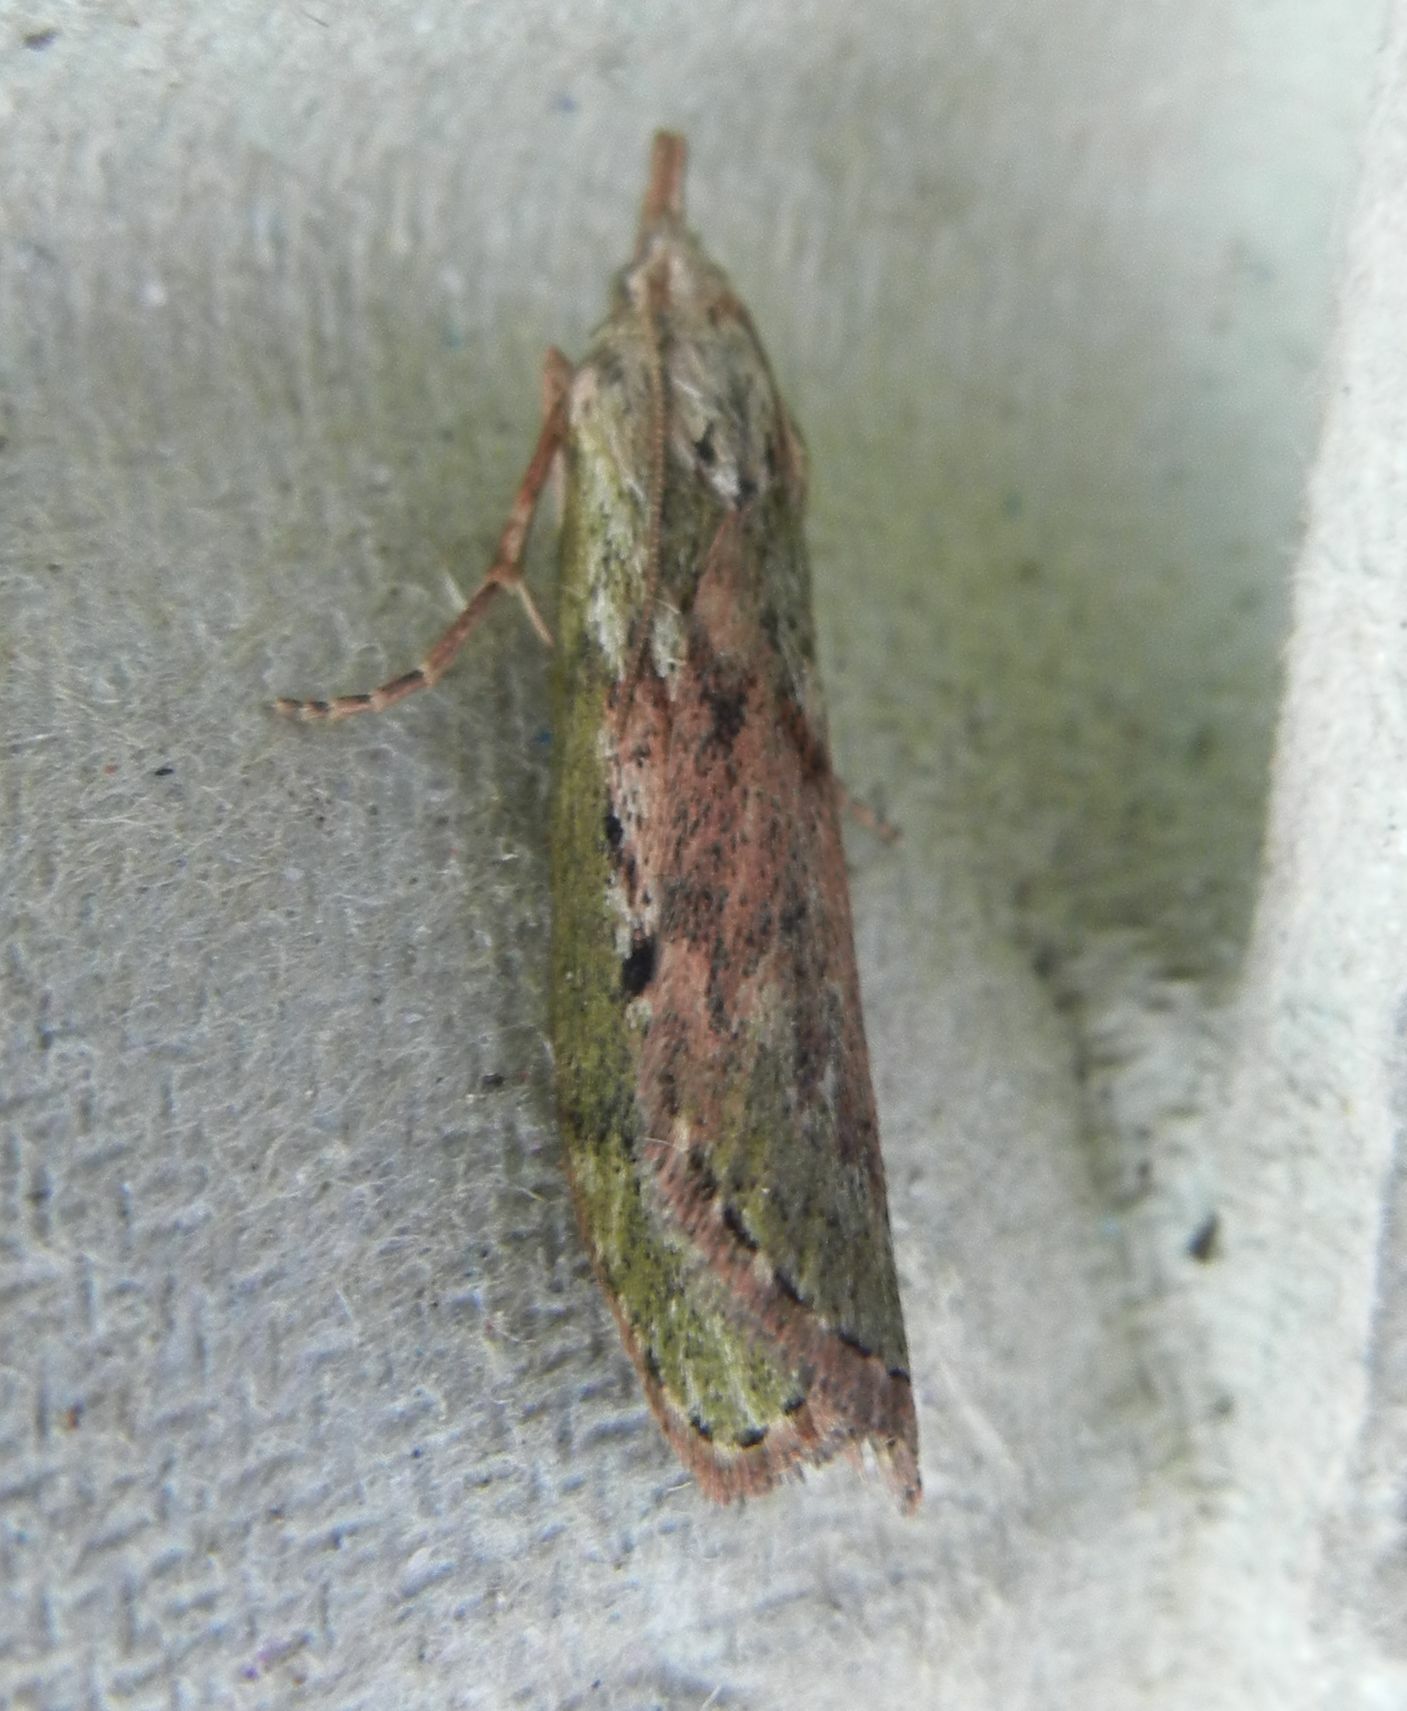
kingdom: Animalia
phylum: Arthropoda
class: Insecta
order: Lepidoptera
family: Pyralidae
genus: Aphomia
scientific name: Aphomia sociella
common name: Bee moth
